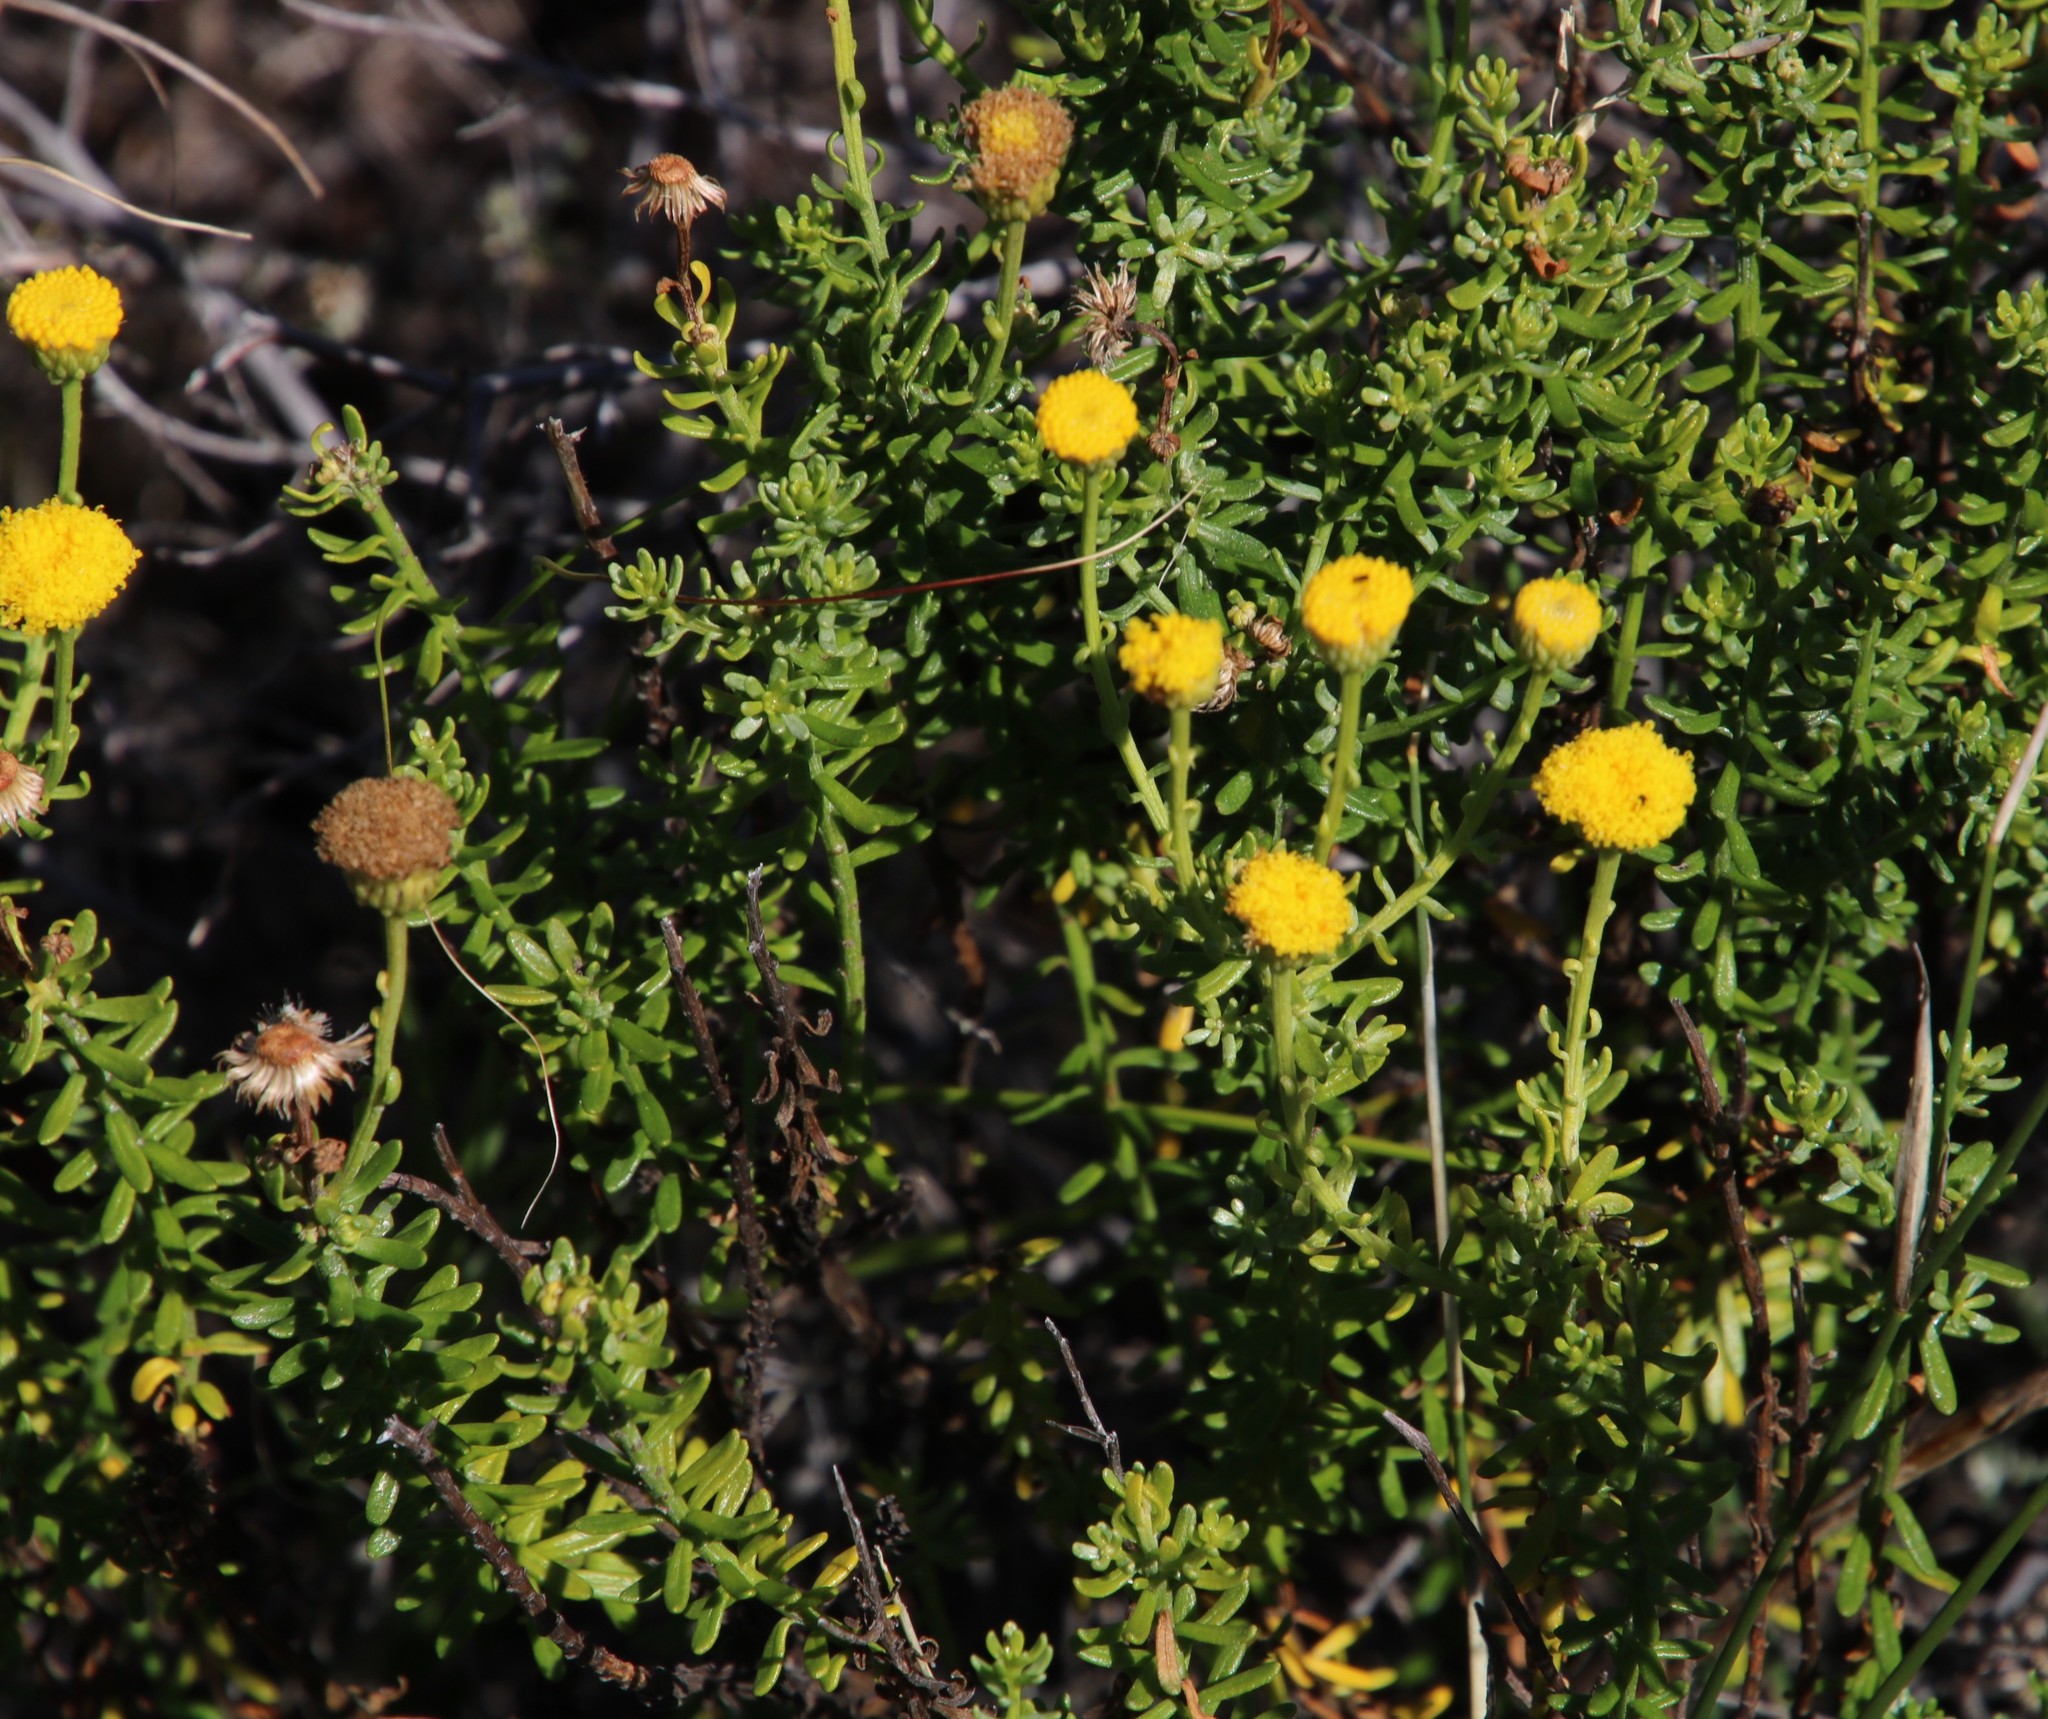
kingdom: Plantae
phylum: Tracheophyta
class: Magnoliopsida
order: Asterales
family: Asteraceae
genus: Chrysocoma
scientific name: Chrysocoma cernua
